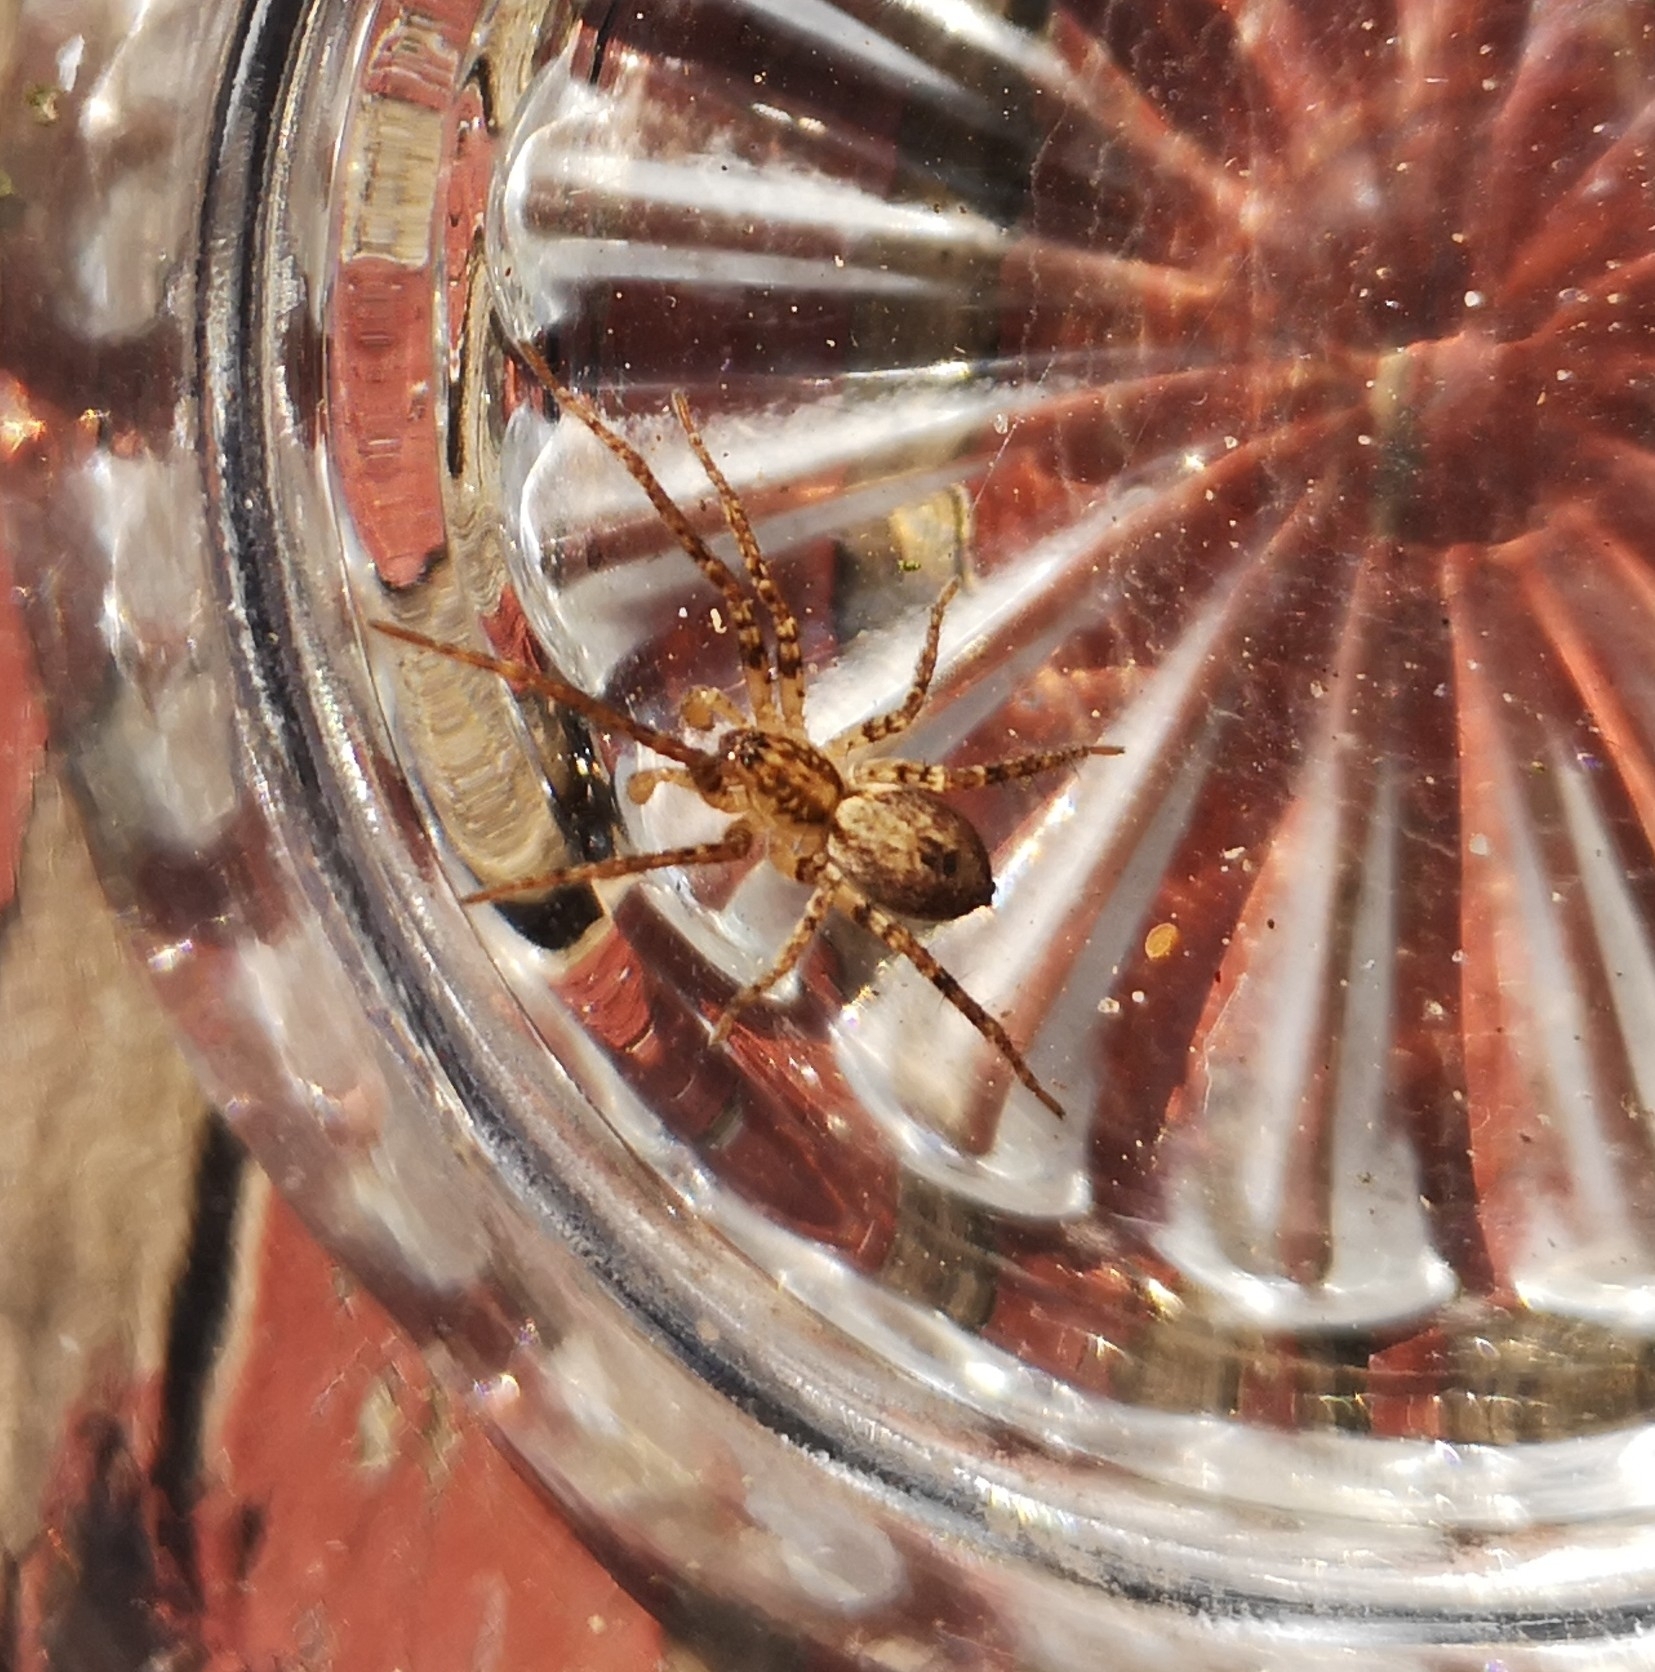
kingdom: Animalia
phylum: Arthropoda
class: Arachnida
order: Araneae
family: Anyphaenidae
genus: Anyphaena
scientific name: Anyphaena accentuata
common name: Buzzing spider
